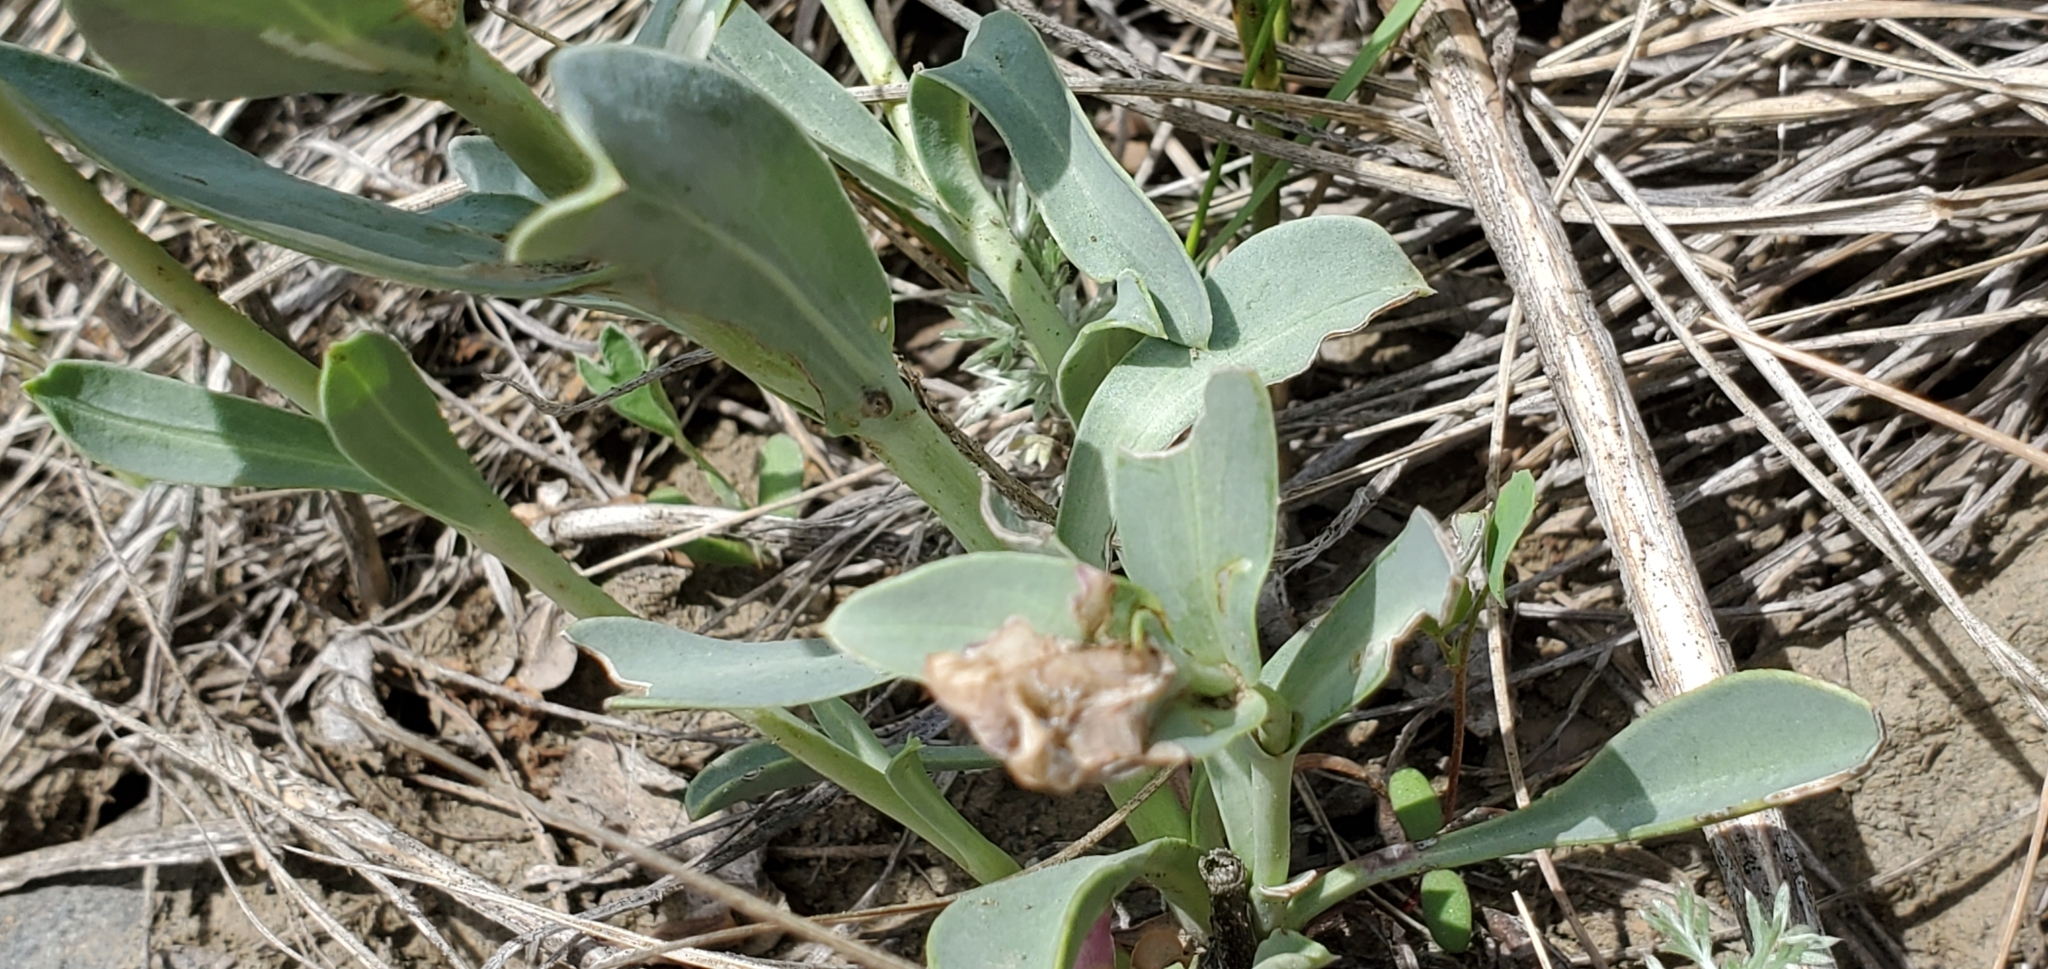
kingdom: Plantae
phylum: Tracheophyta
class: Magnoliopsida
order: Lamiales
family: Plantaginaceae
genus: Penstemon
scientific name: Penstemon nitidus
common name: Shining penstemon
